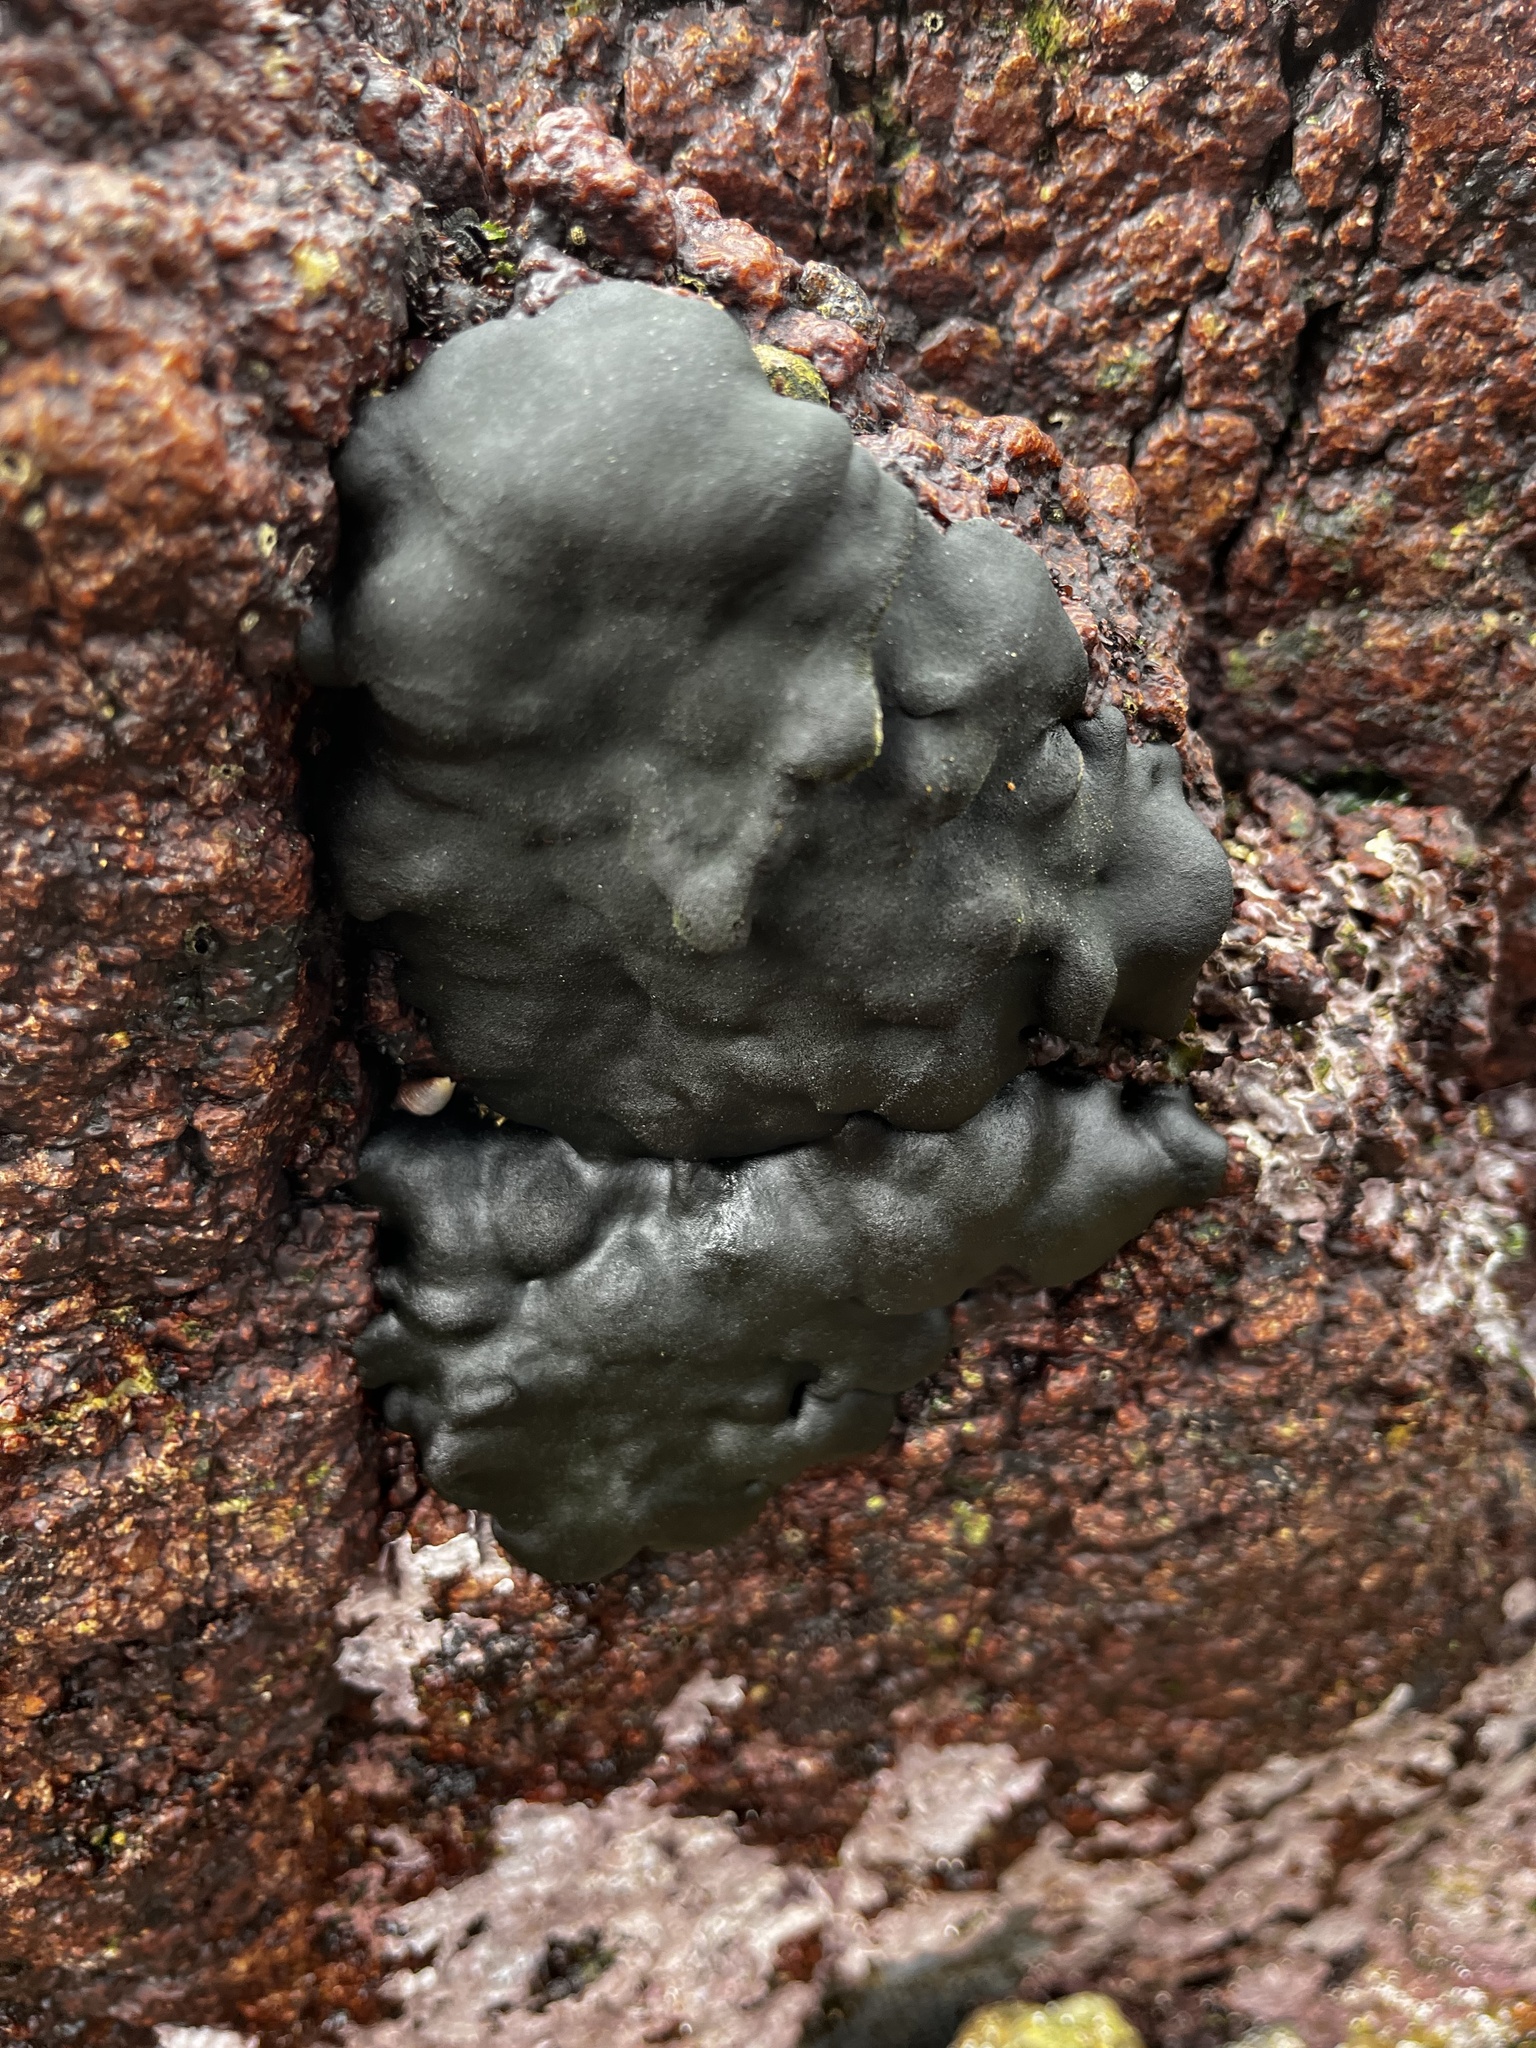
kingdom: Plantae
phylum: Chlorophyta
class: Ulvophyceae
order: Bryopsidales
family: Codiaceae
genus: Codium
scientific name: Codium
